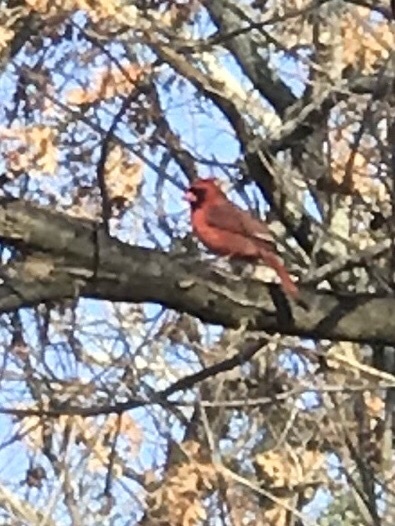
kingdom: Animalia
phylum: Chordata
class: Aves
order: Passeriformes
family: Cardinalidae
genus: Cardinalis
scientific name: Cardinalis cardinalis
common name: Northern cardinal
